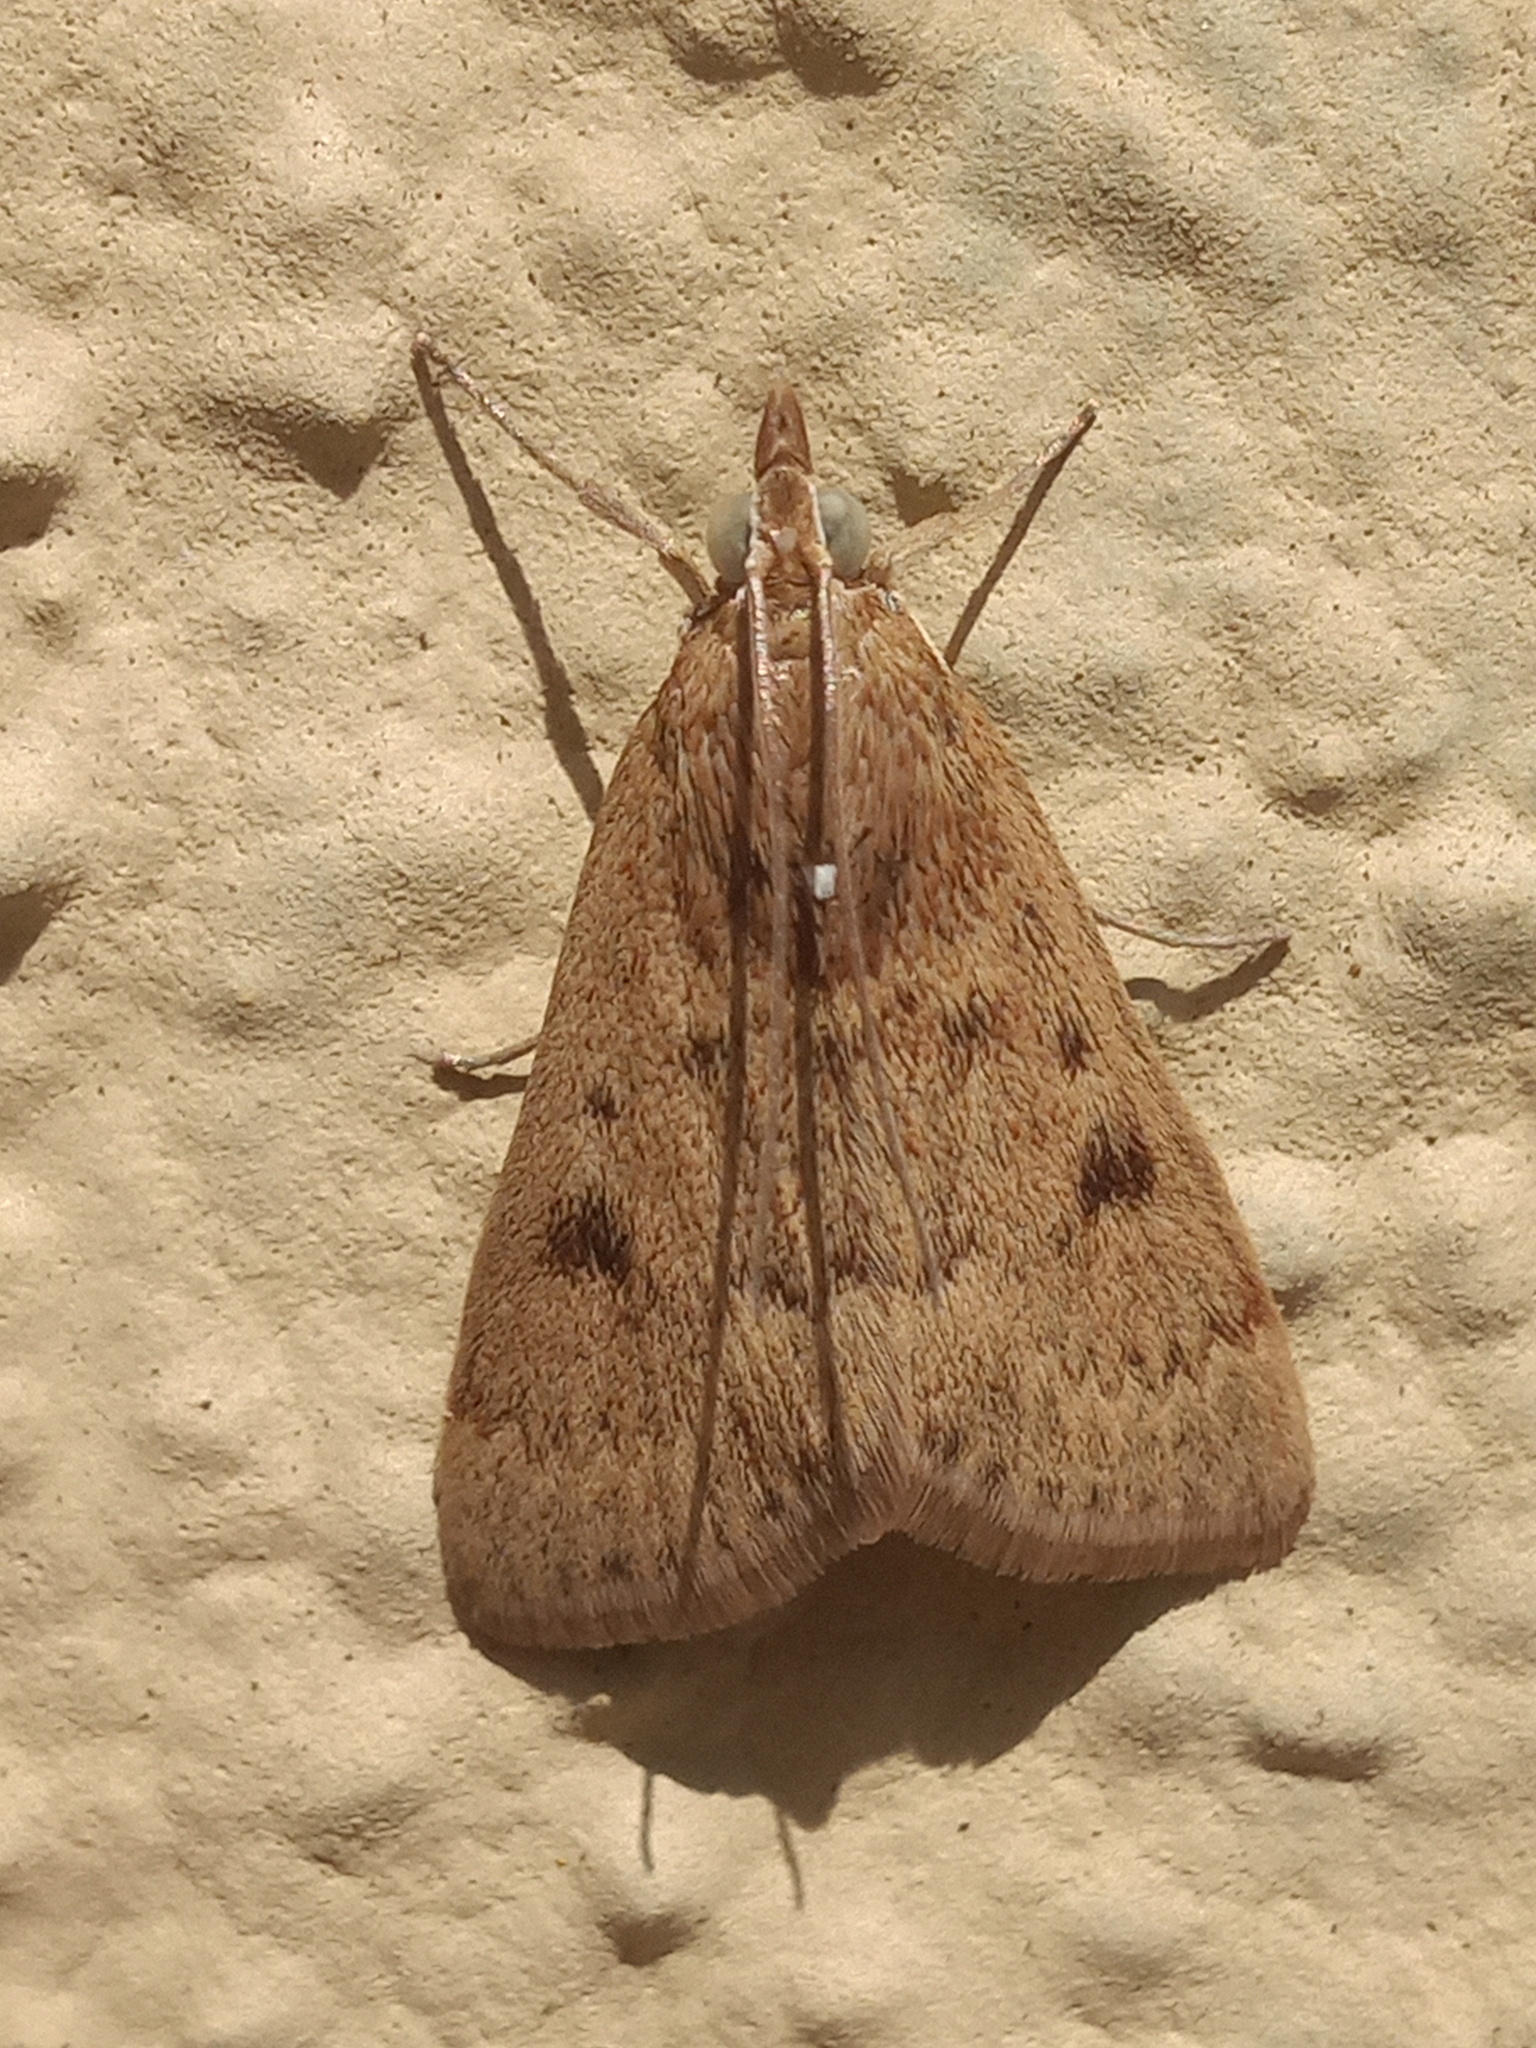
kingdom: Animalia
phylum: Arthropoda
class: Insecta
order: Lepidoptera
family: Crambidae
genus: Achyra
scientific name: Achyra rantalis
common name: Garden webworm
